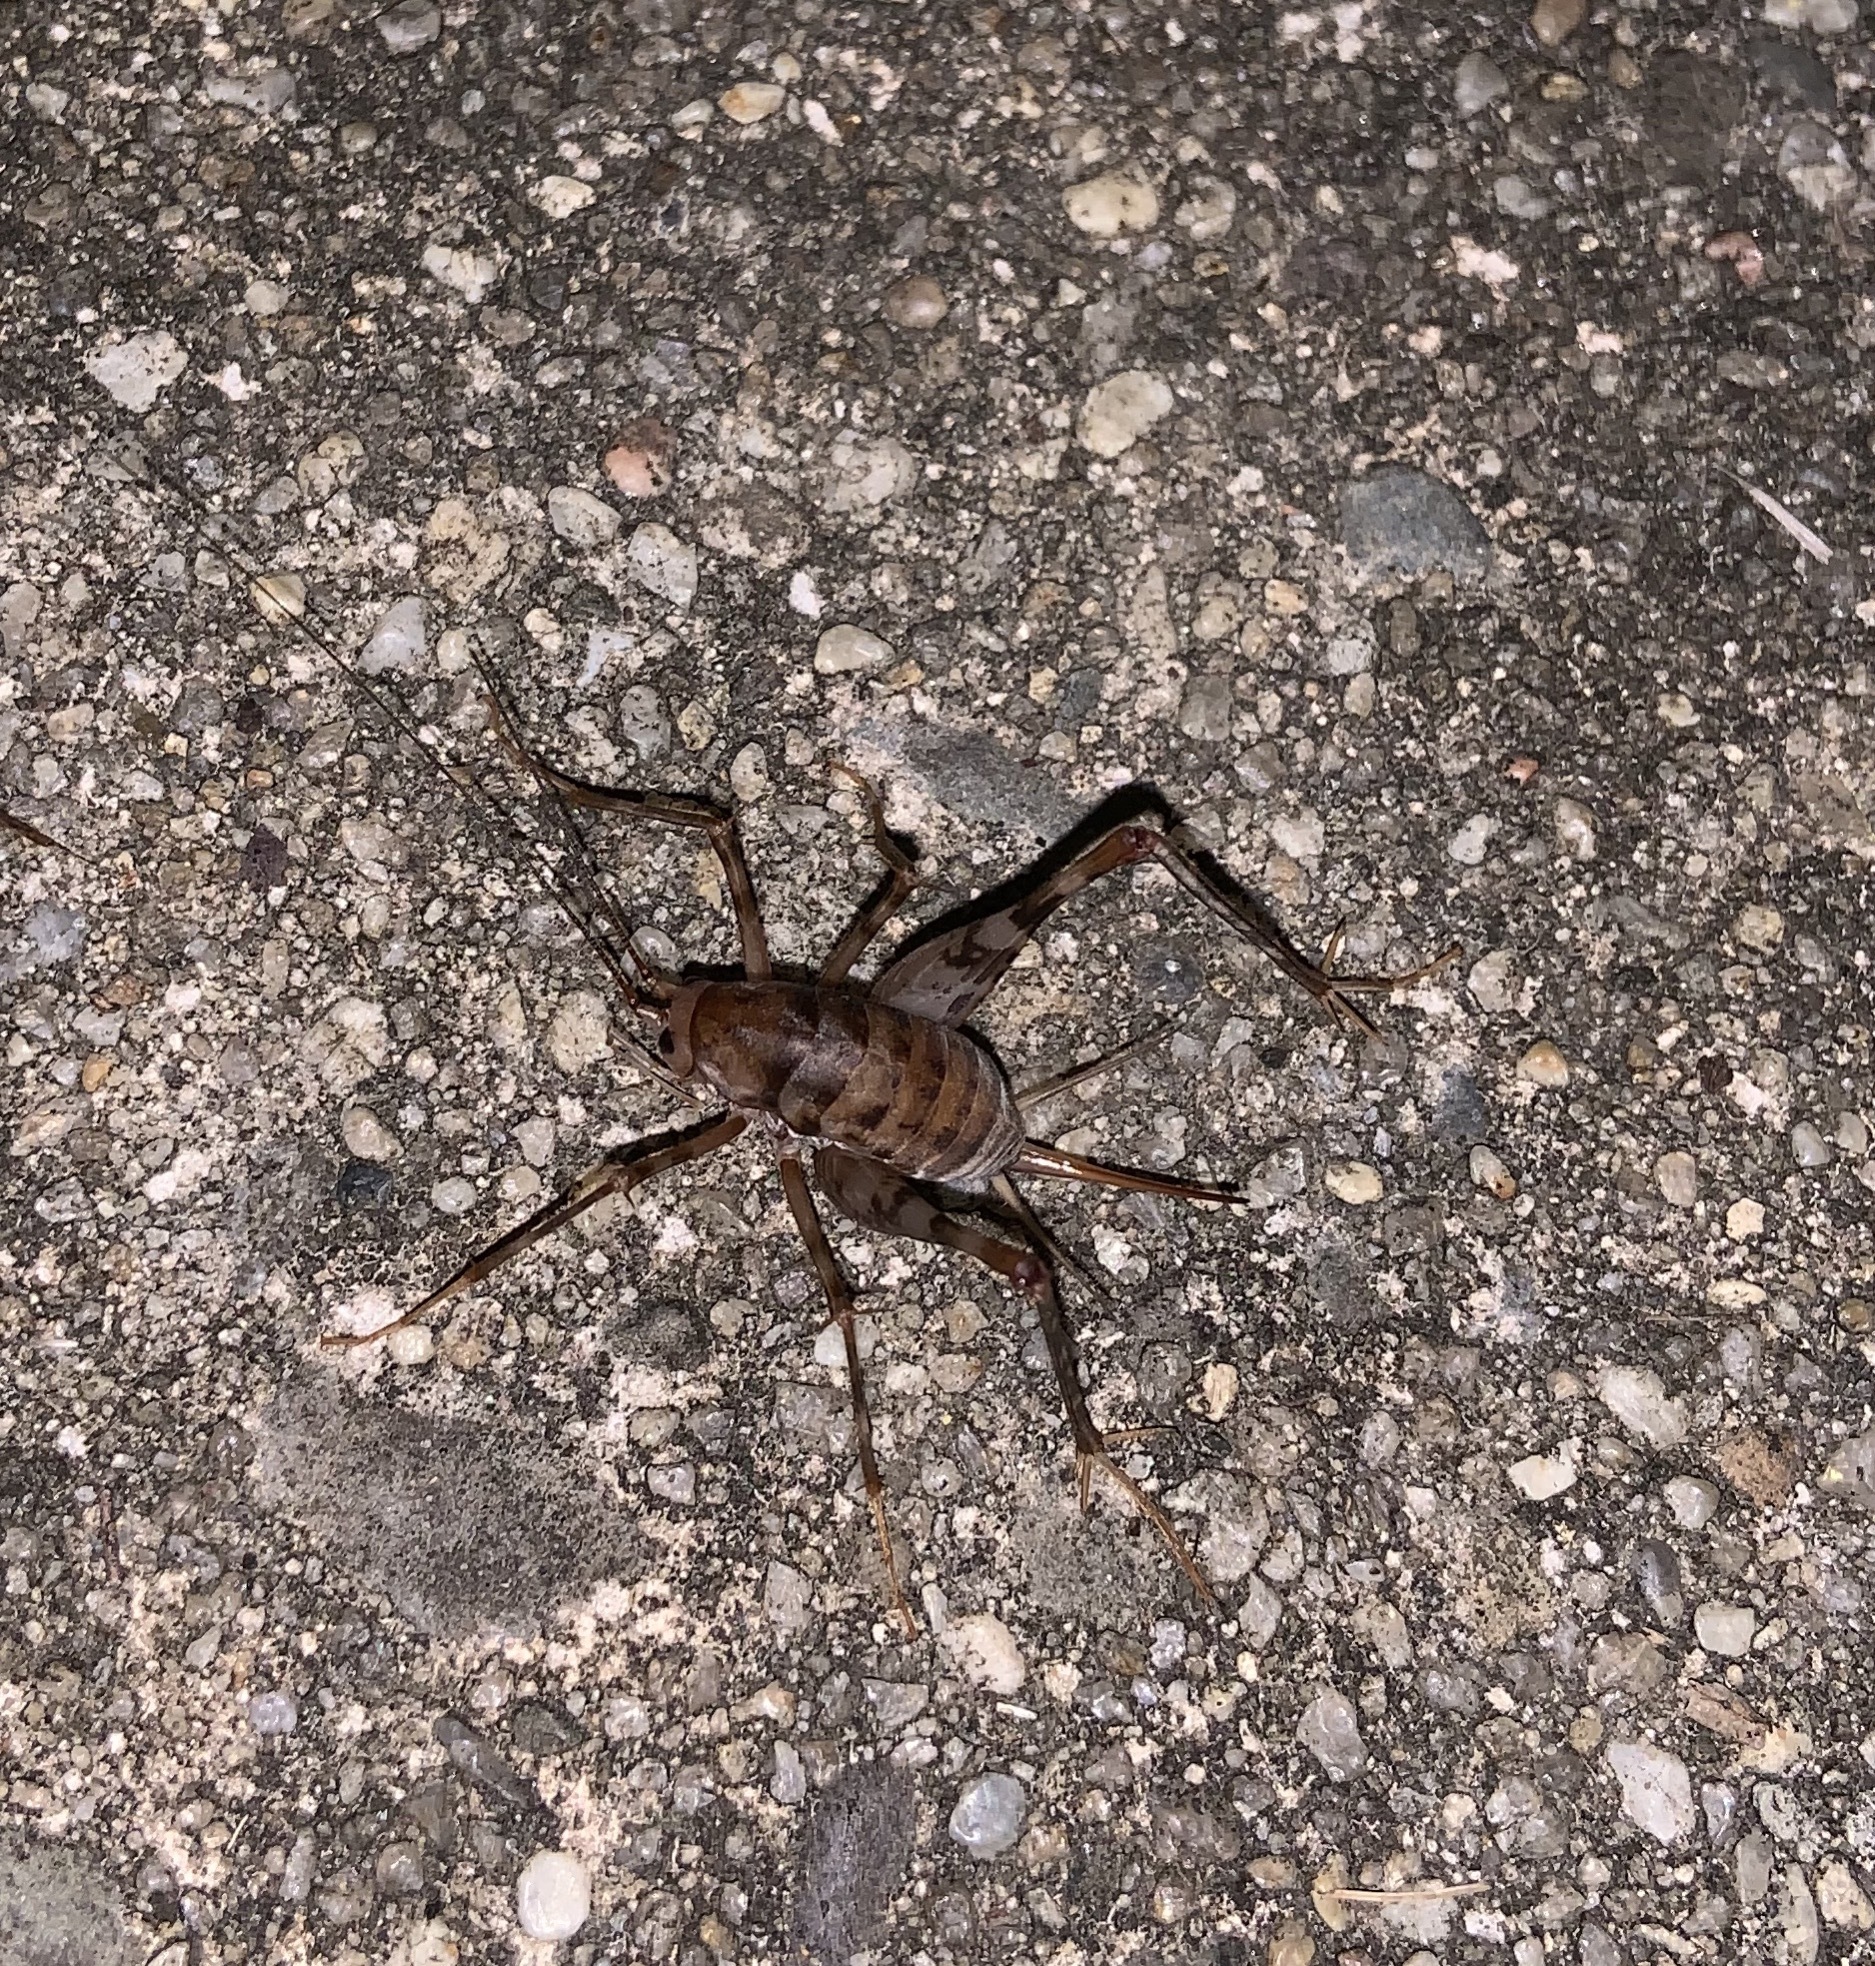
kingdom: Animalia
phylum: Arthropoda
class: Insecta
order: Orthoptera
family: Rhaphidophoridae
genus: Tachycines
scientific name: Tachycines asynamorus
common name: Greenhouse camel cricket
